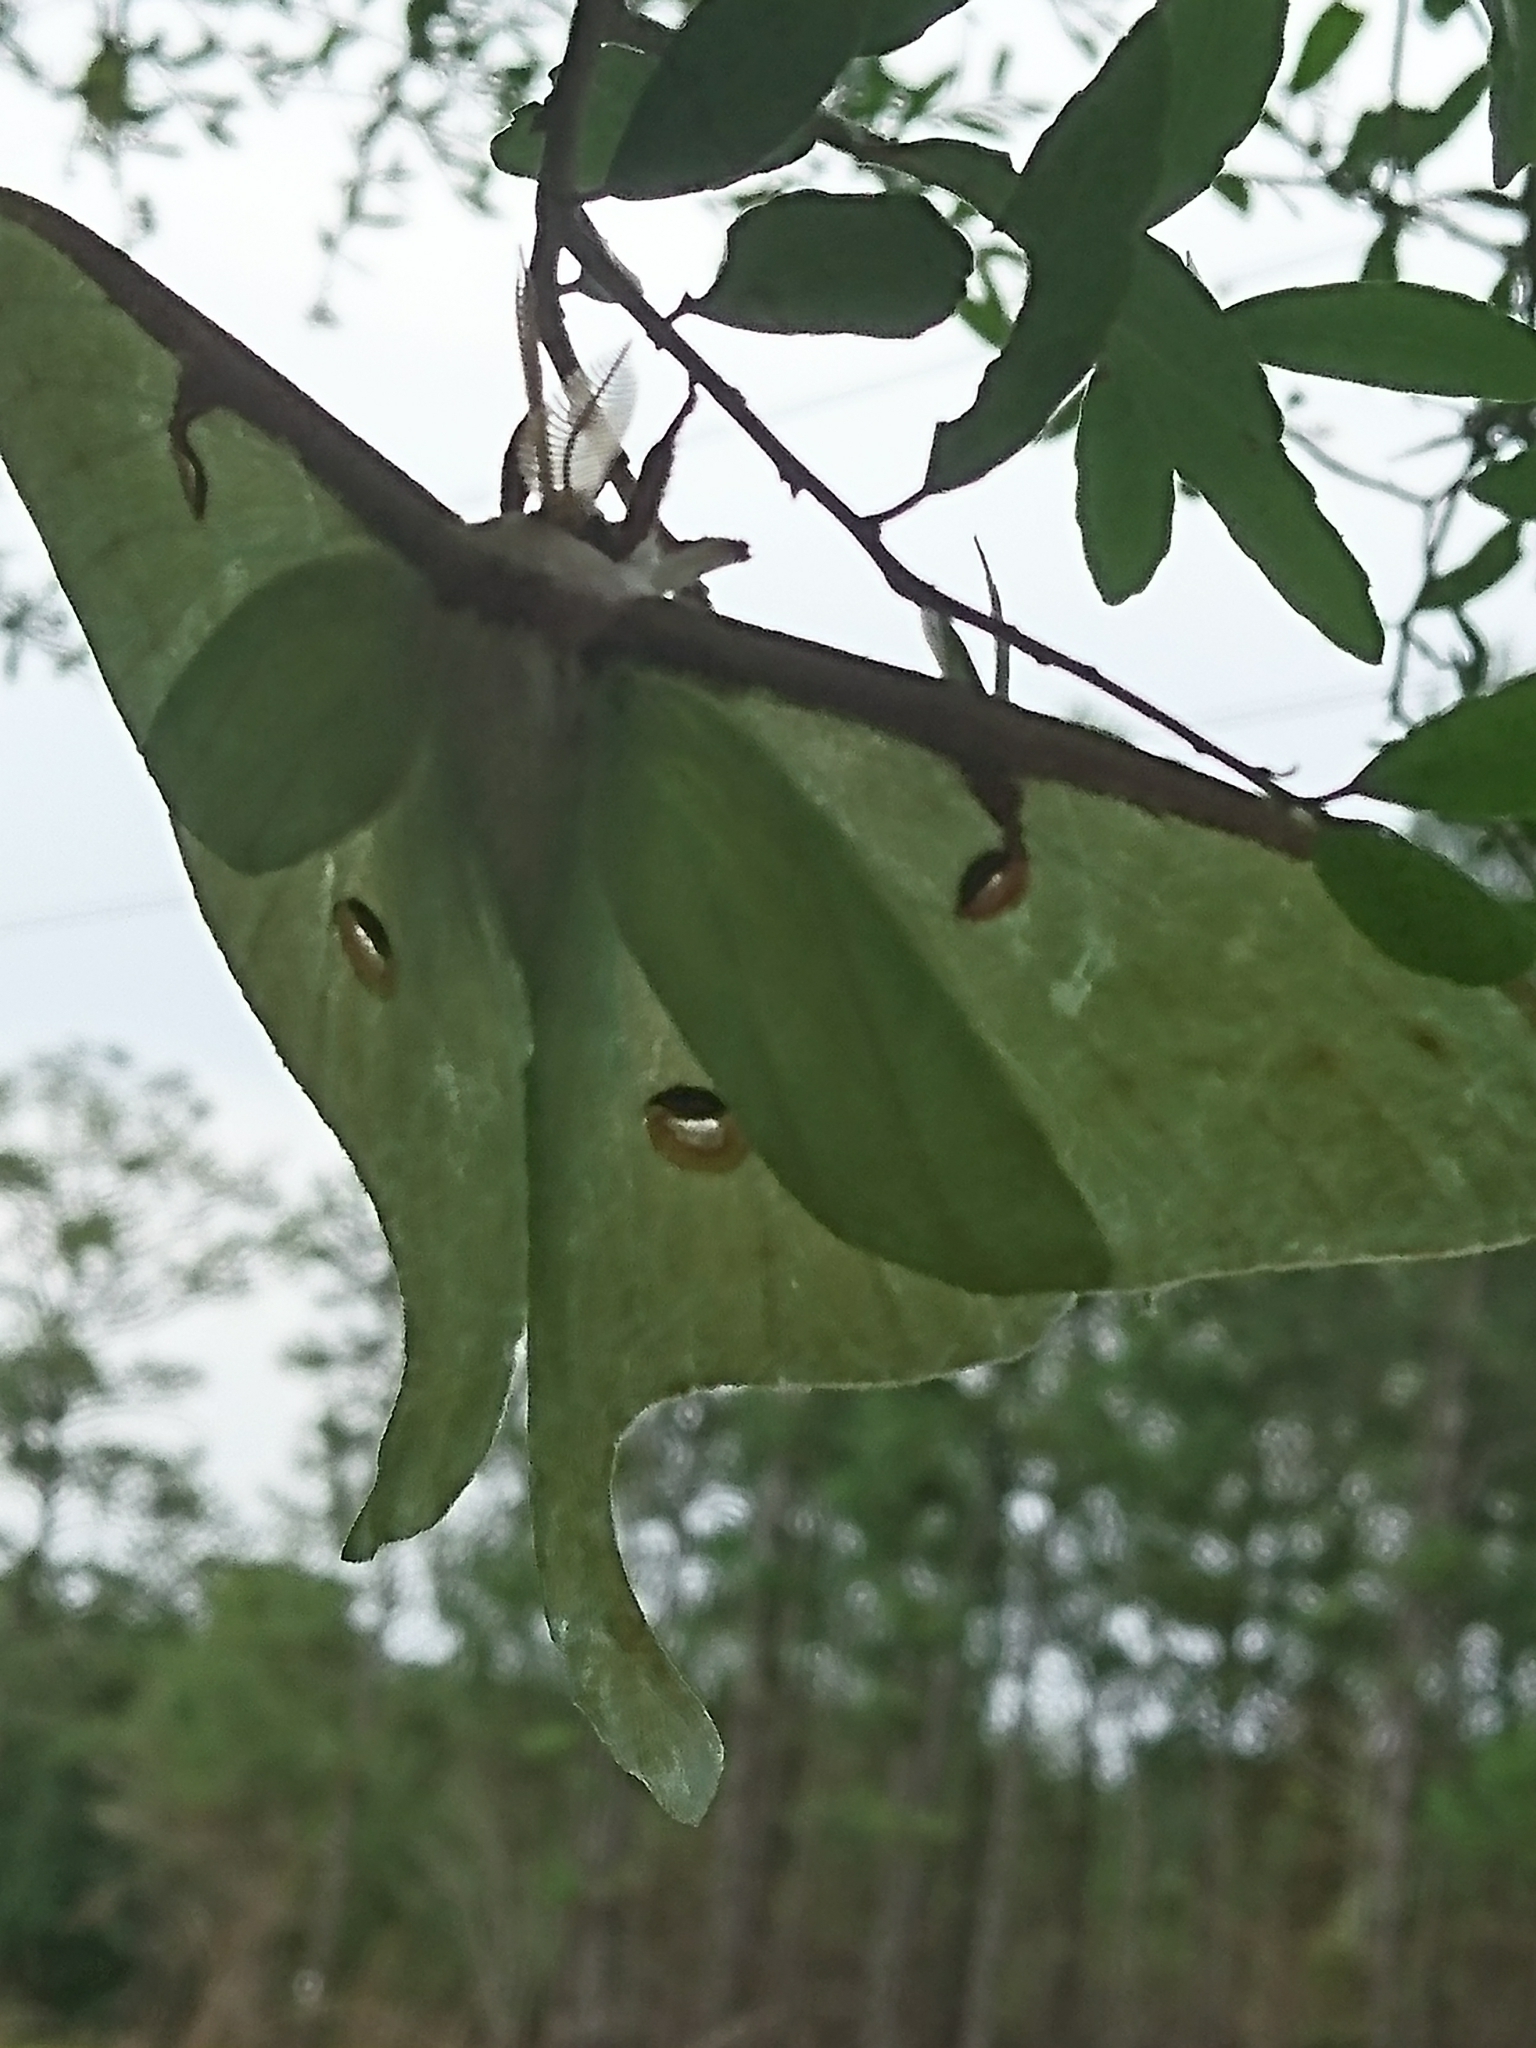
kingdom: Animalia
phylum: Arthropoda
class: Insecta
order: Lepidoptera
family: Saturniidae
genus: Actias
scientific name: Actias luna
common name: Luna moth
